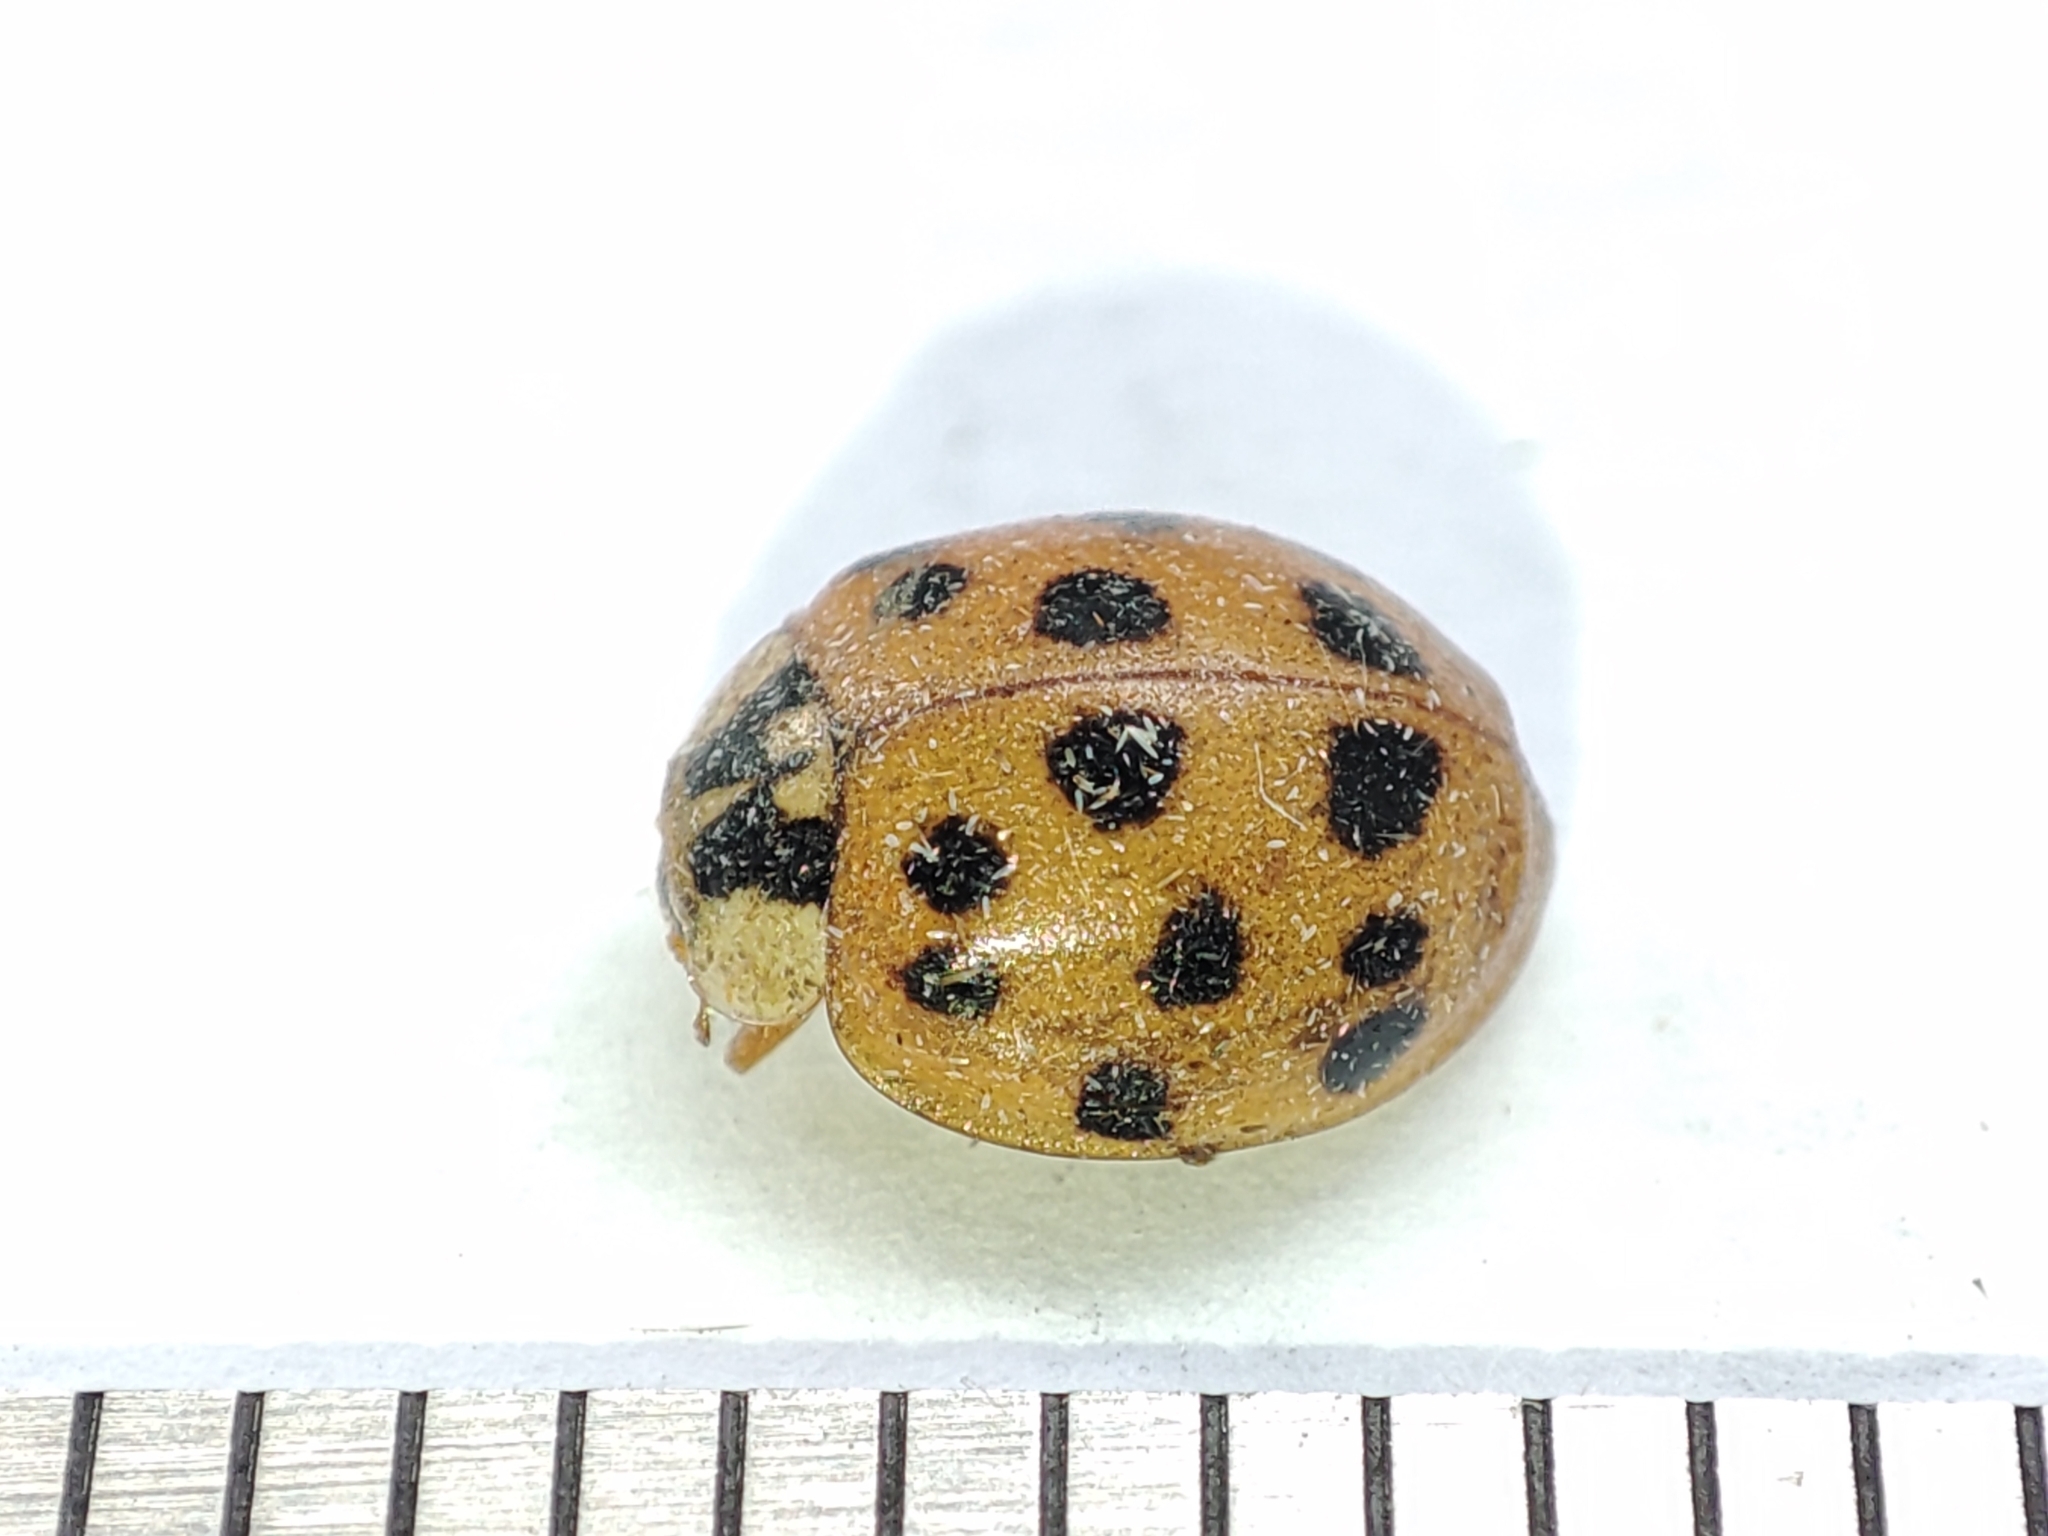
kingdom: Animalia
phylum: Arthropoda
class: Insecta
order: Coleoptera
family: Coccinellidae
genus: Harmonia
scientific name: Harmonia axyridis
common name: Harlequin ladybird
